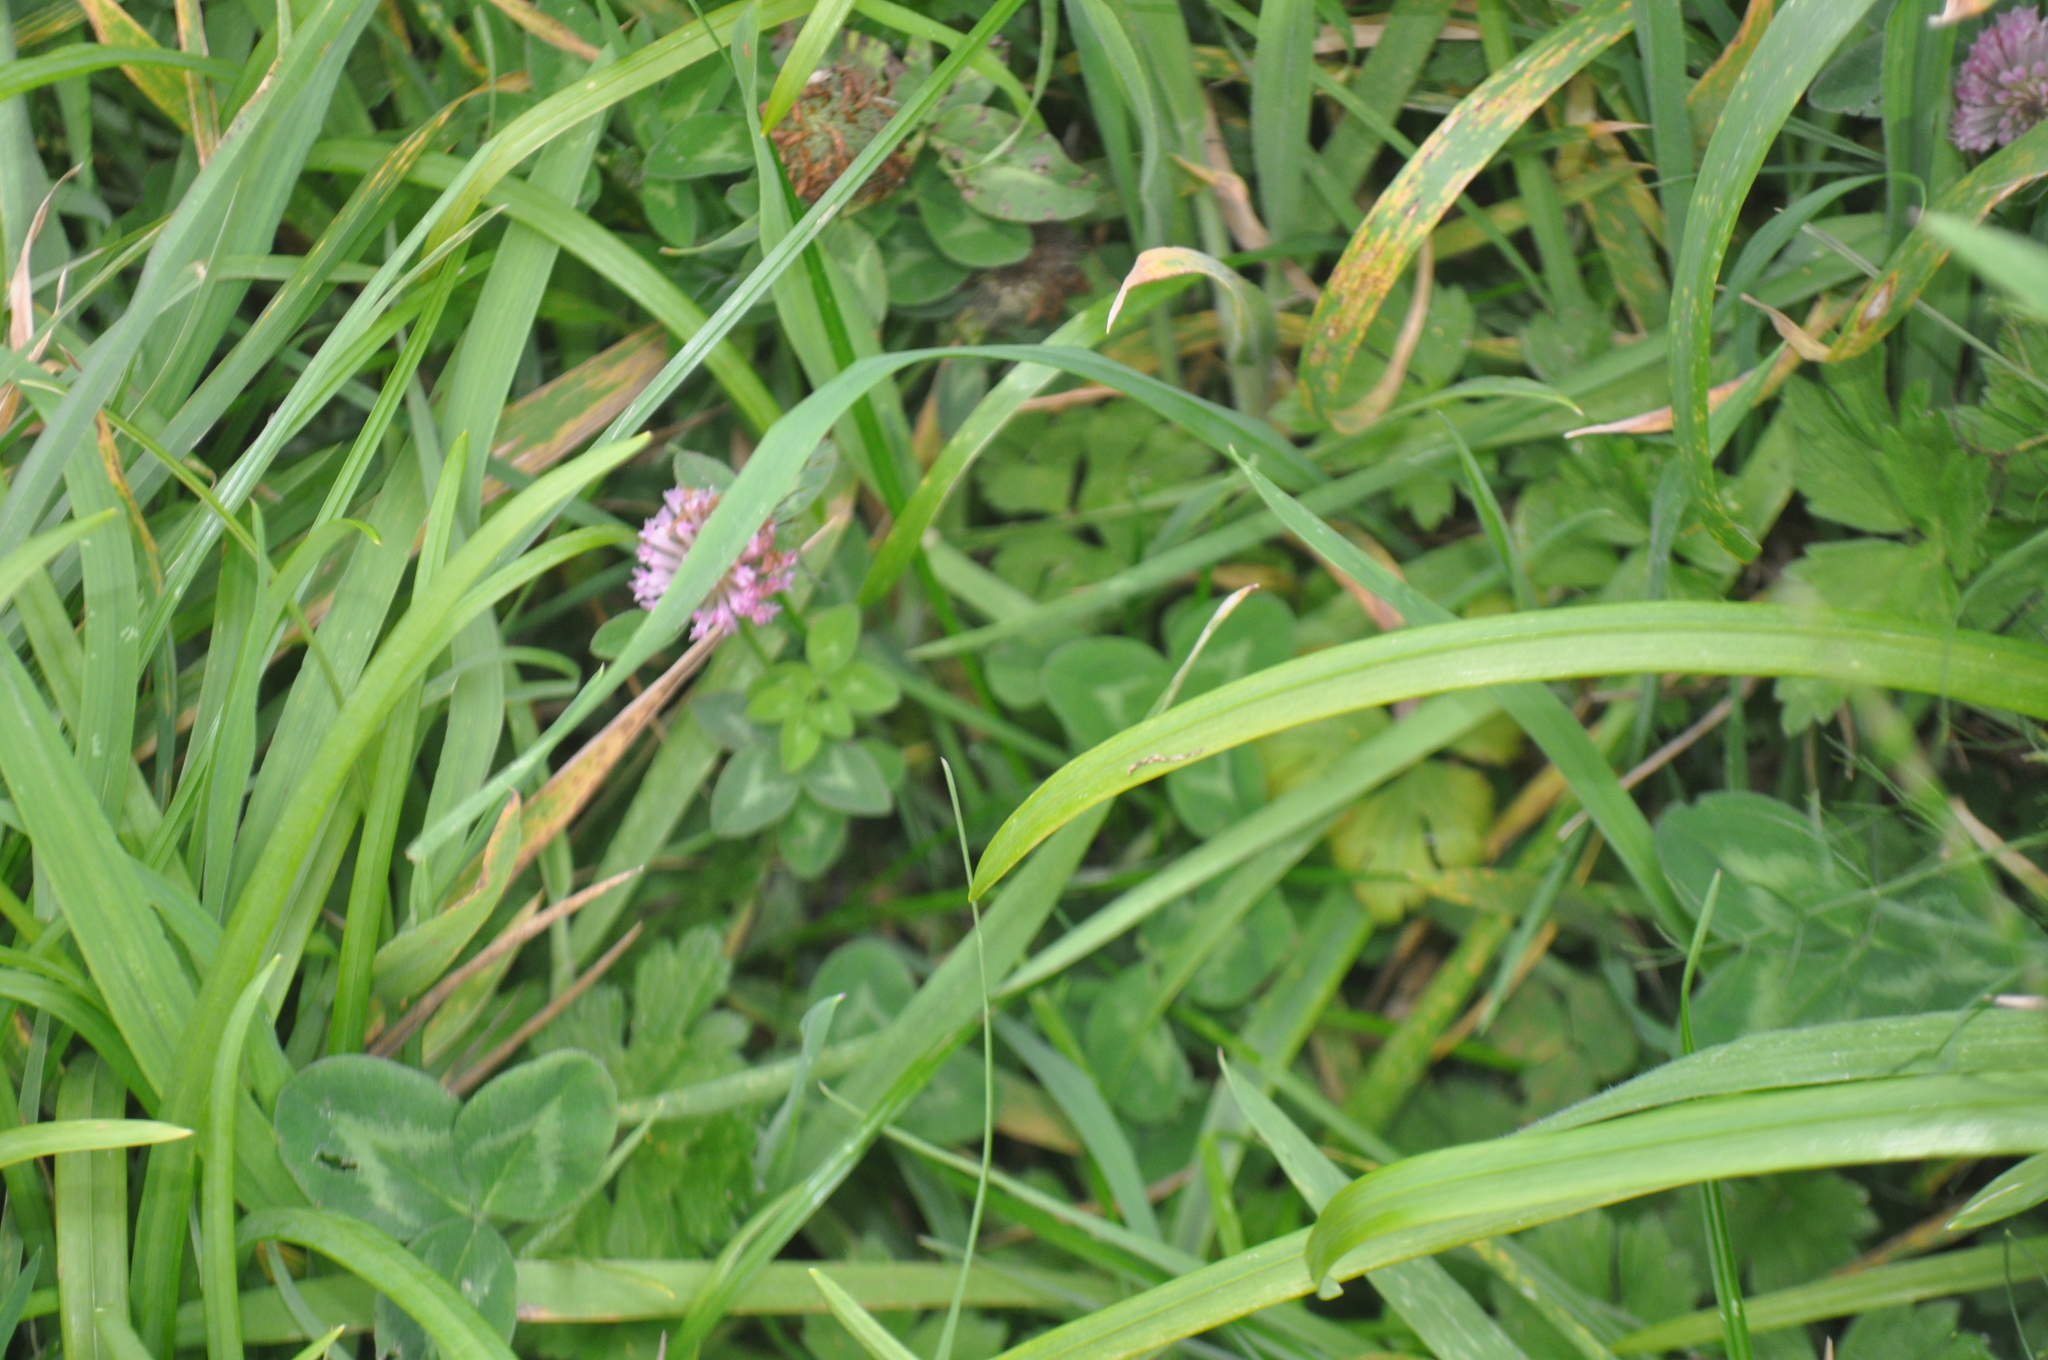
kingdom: Plantae
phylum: Tracheophyta
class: Magnoliopsida
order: Fabales
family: Fabaceae
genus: Trifolium
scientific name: Trifolium pratense
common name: Red clover
